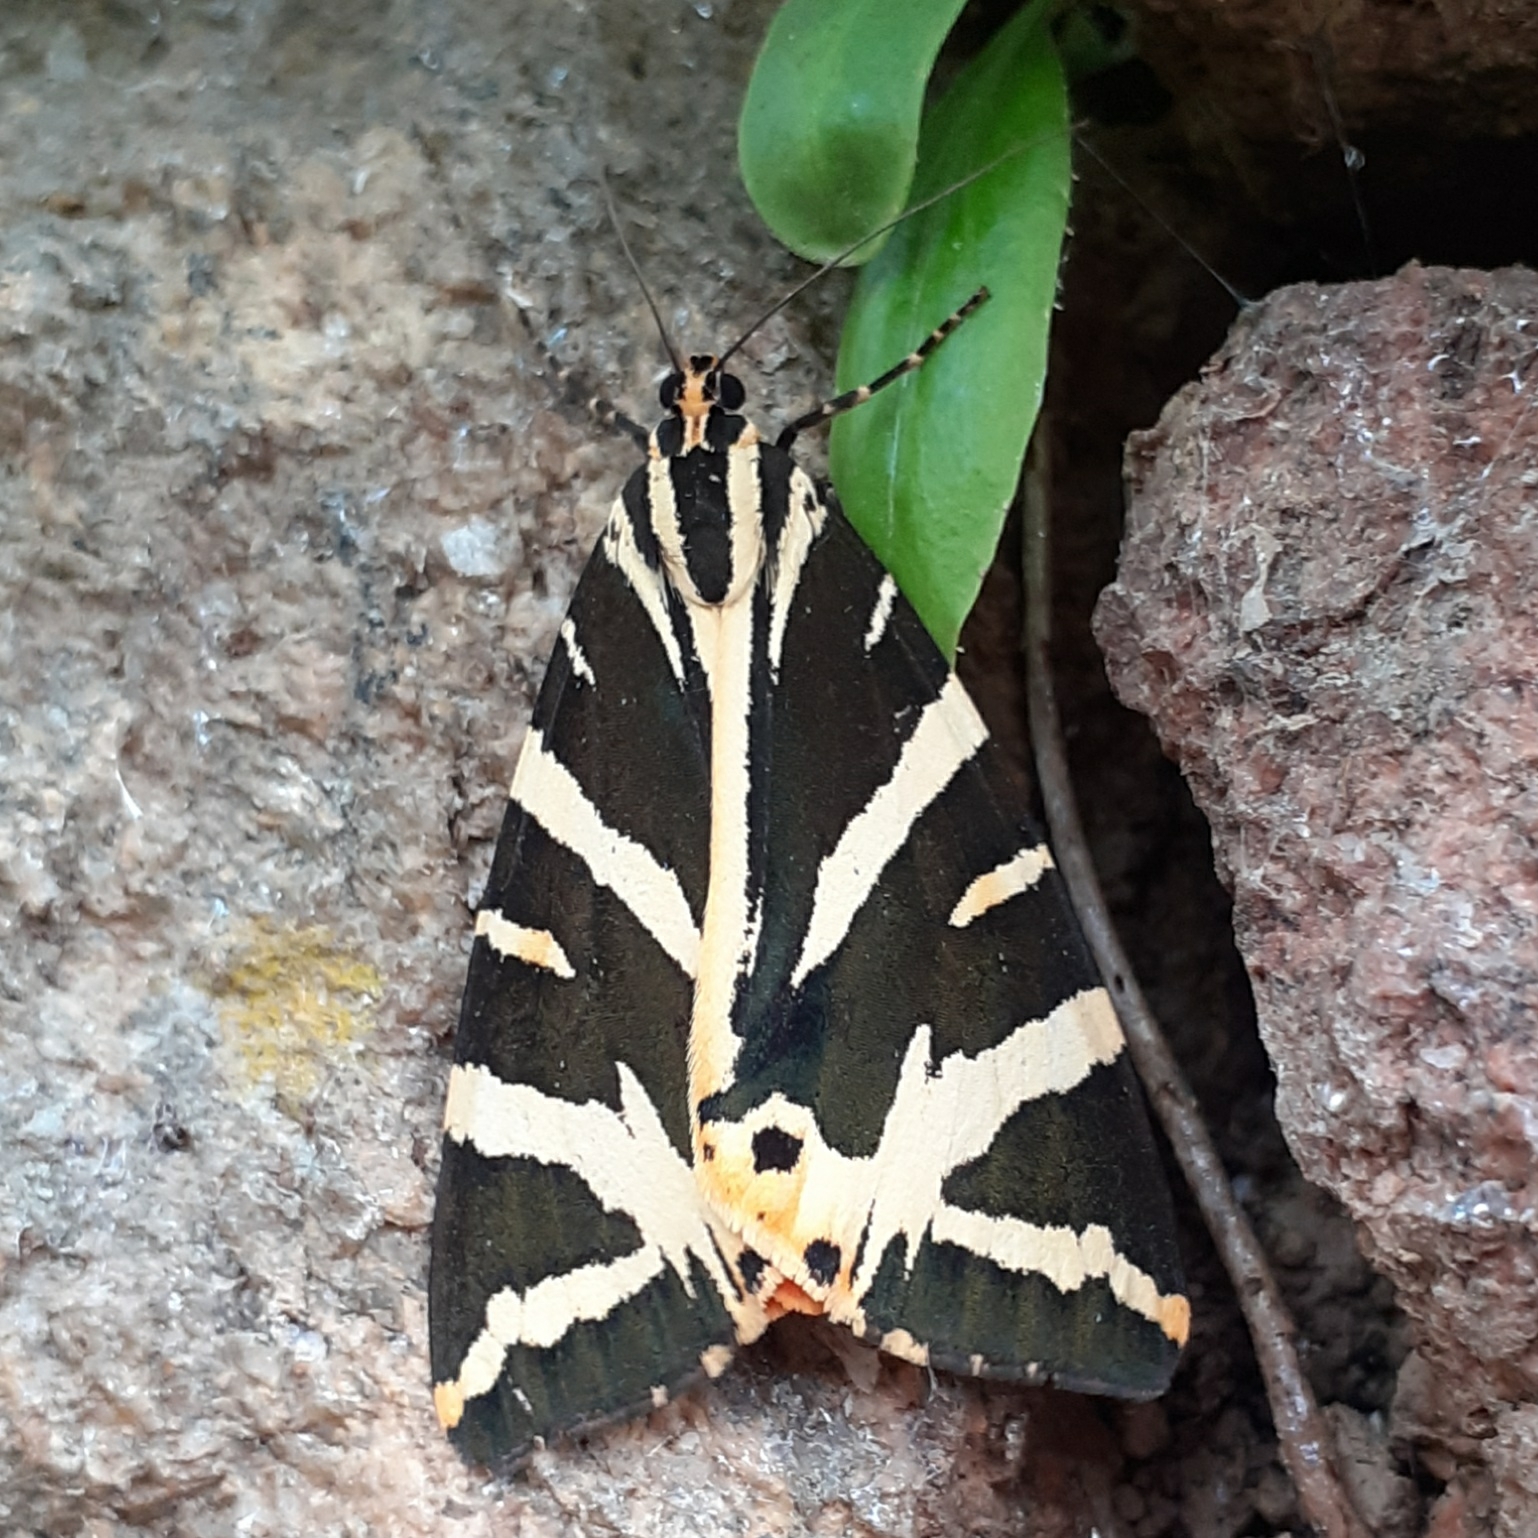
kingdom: Animalia
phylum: Arthropoda
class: Insecta
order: Lepidoptera
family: Erebidae
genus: Euplagia
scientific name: Euplagia quadripunctaria
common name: Jersey tiger
